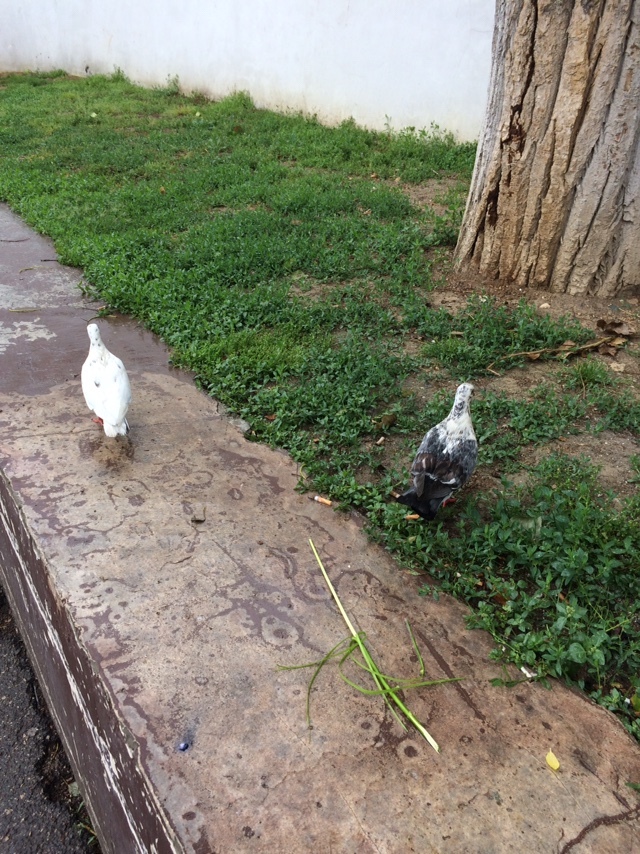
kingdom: Animalia
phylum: Chordata
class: Aves
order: Columbiformes
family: Columbidae
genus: Columba
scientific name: Columba livia
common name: Rock pigeon
